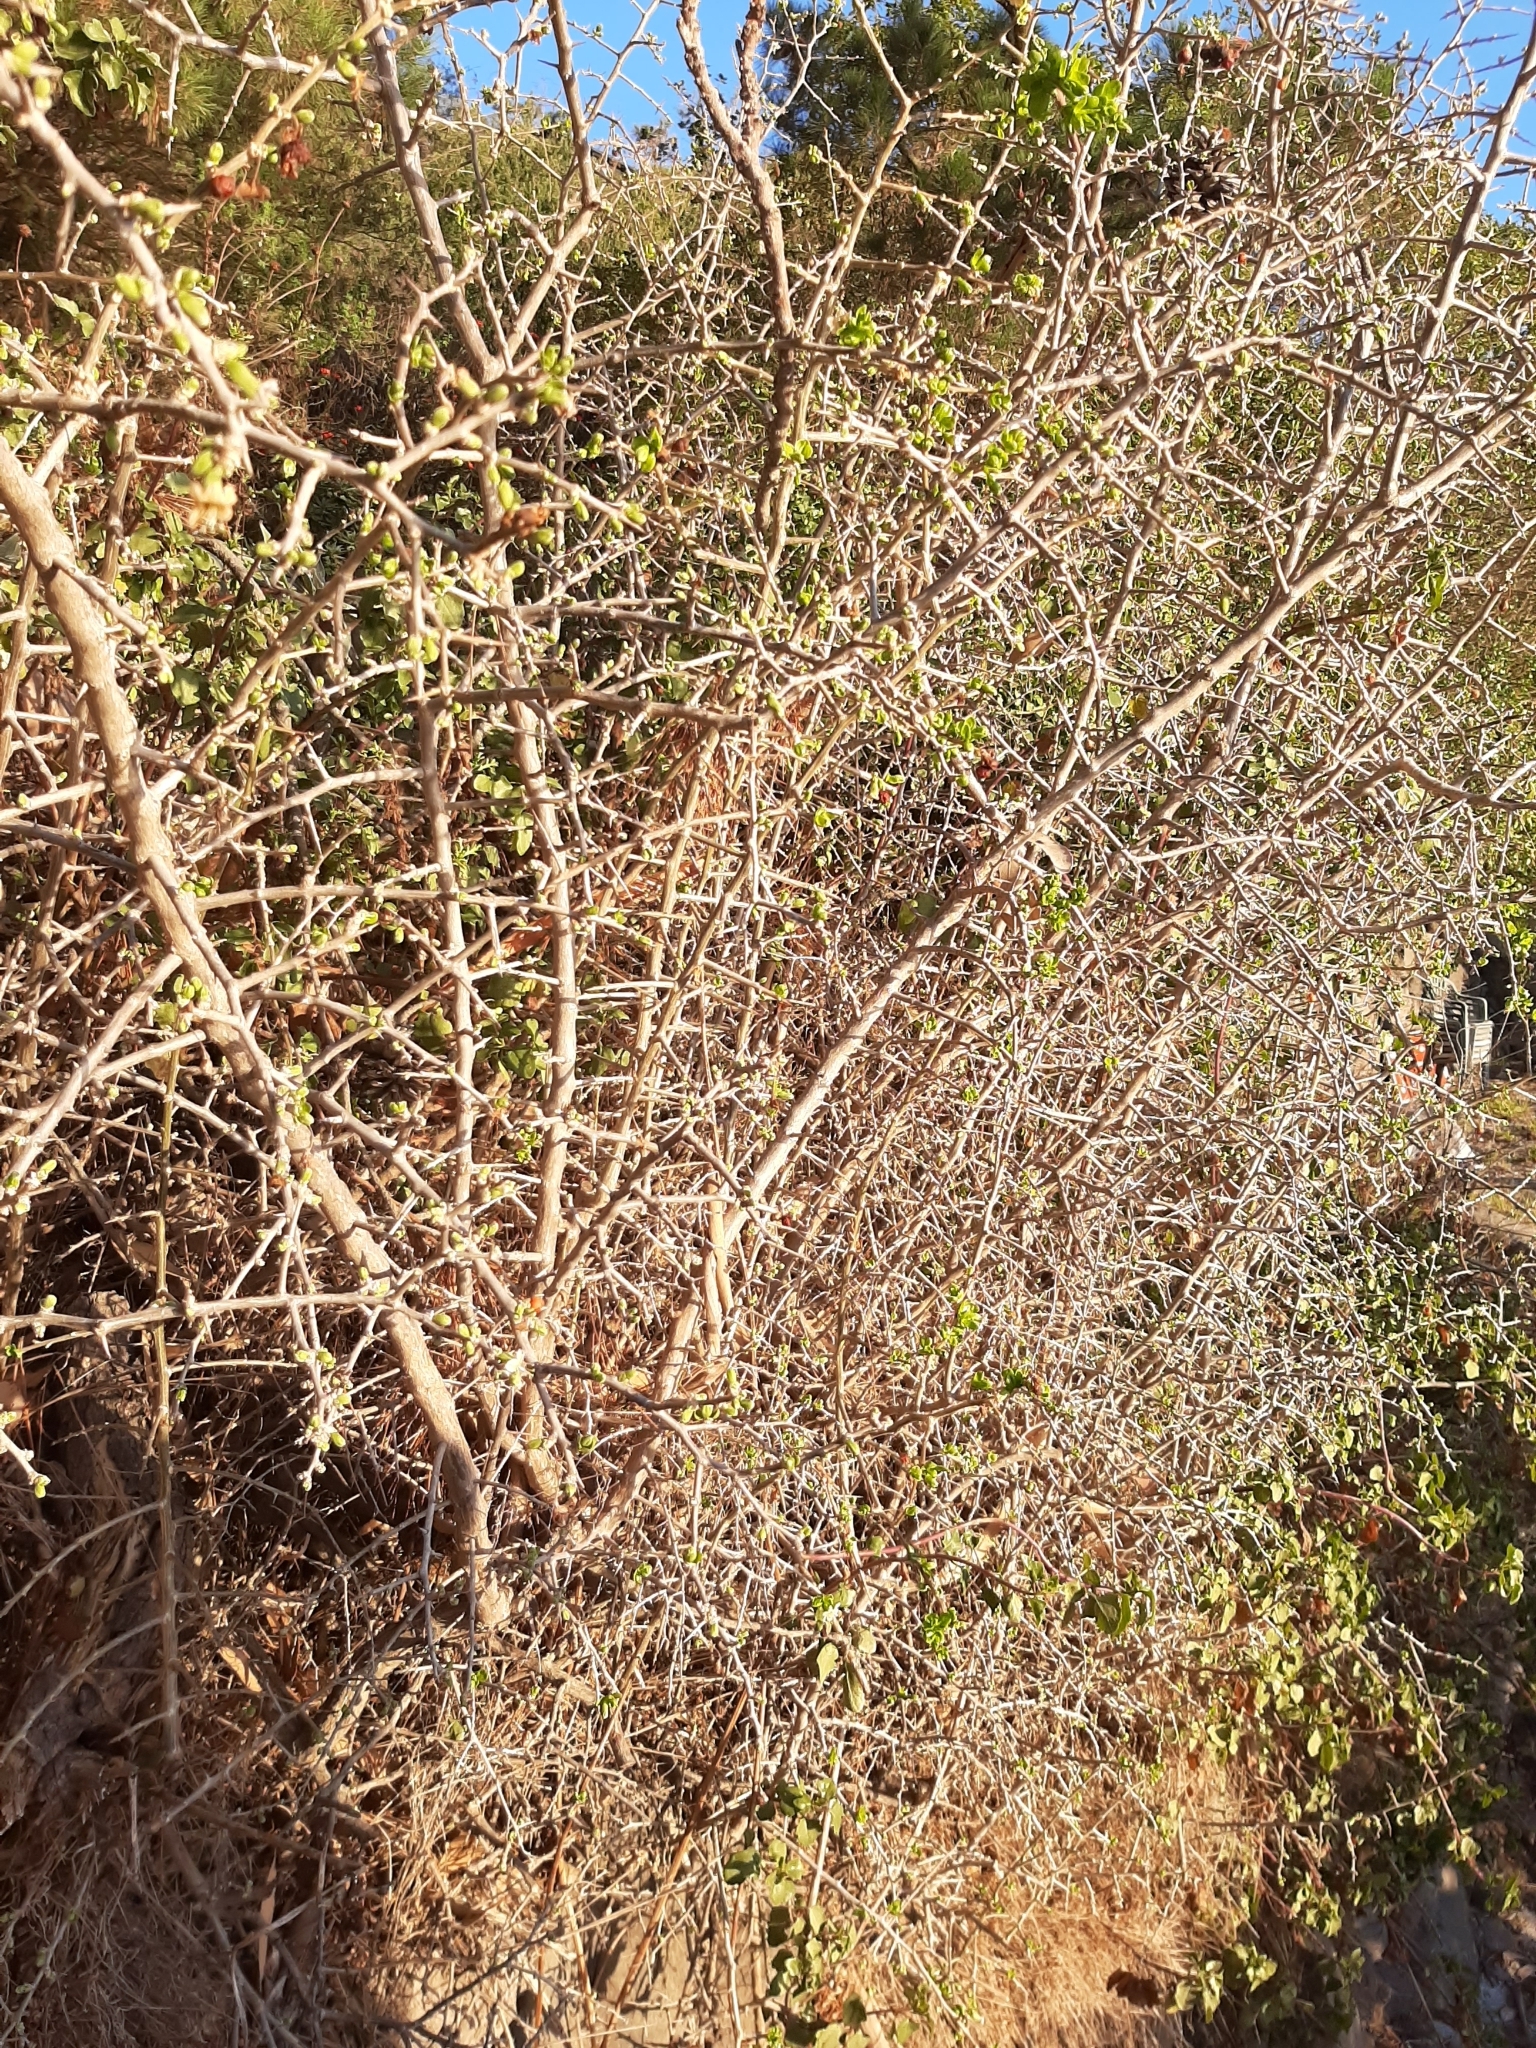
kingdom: Plantae
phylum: Tracheophyta
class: Magnoliopsida
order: Solanales
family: Solanaceae
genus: Lycium
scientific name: Lycium ferocissimum
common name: African boxthorn
